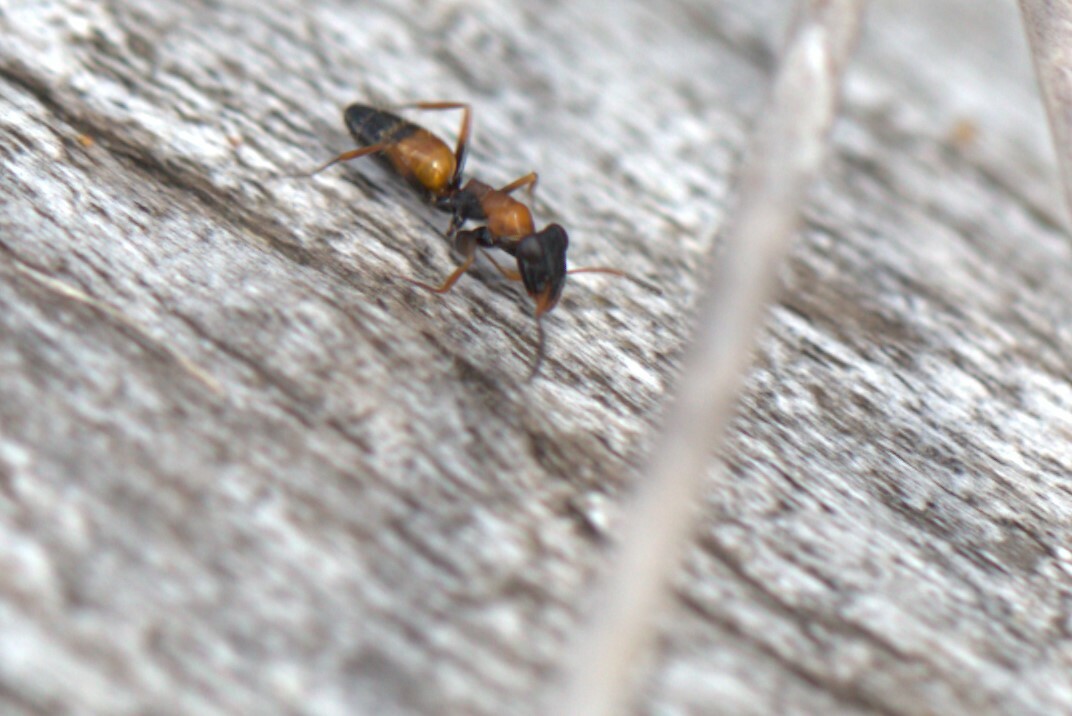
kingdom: Animalia
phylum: Arthropoda
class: Insecta
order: Hymenoptera
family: Formicidae
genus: Opisthopsis
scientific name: Opisthopsis pictus
